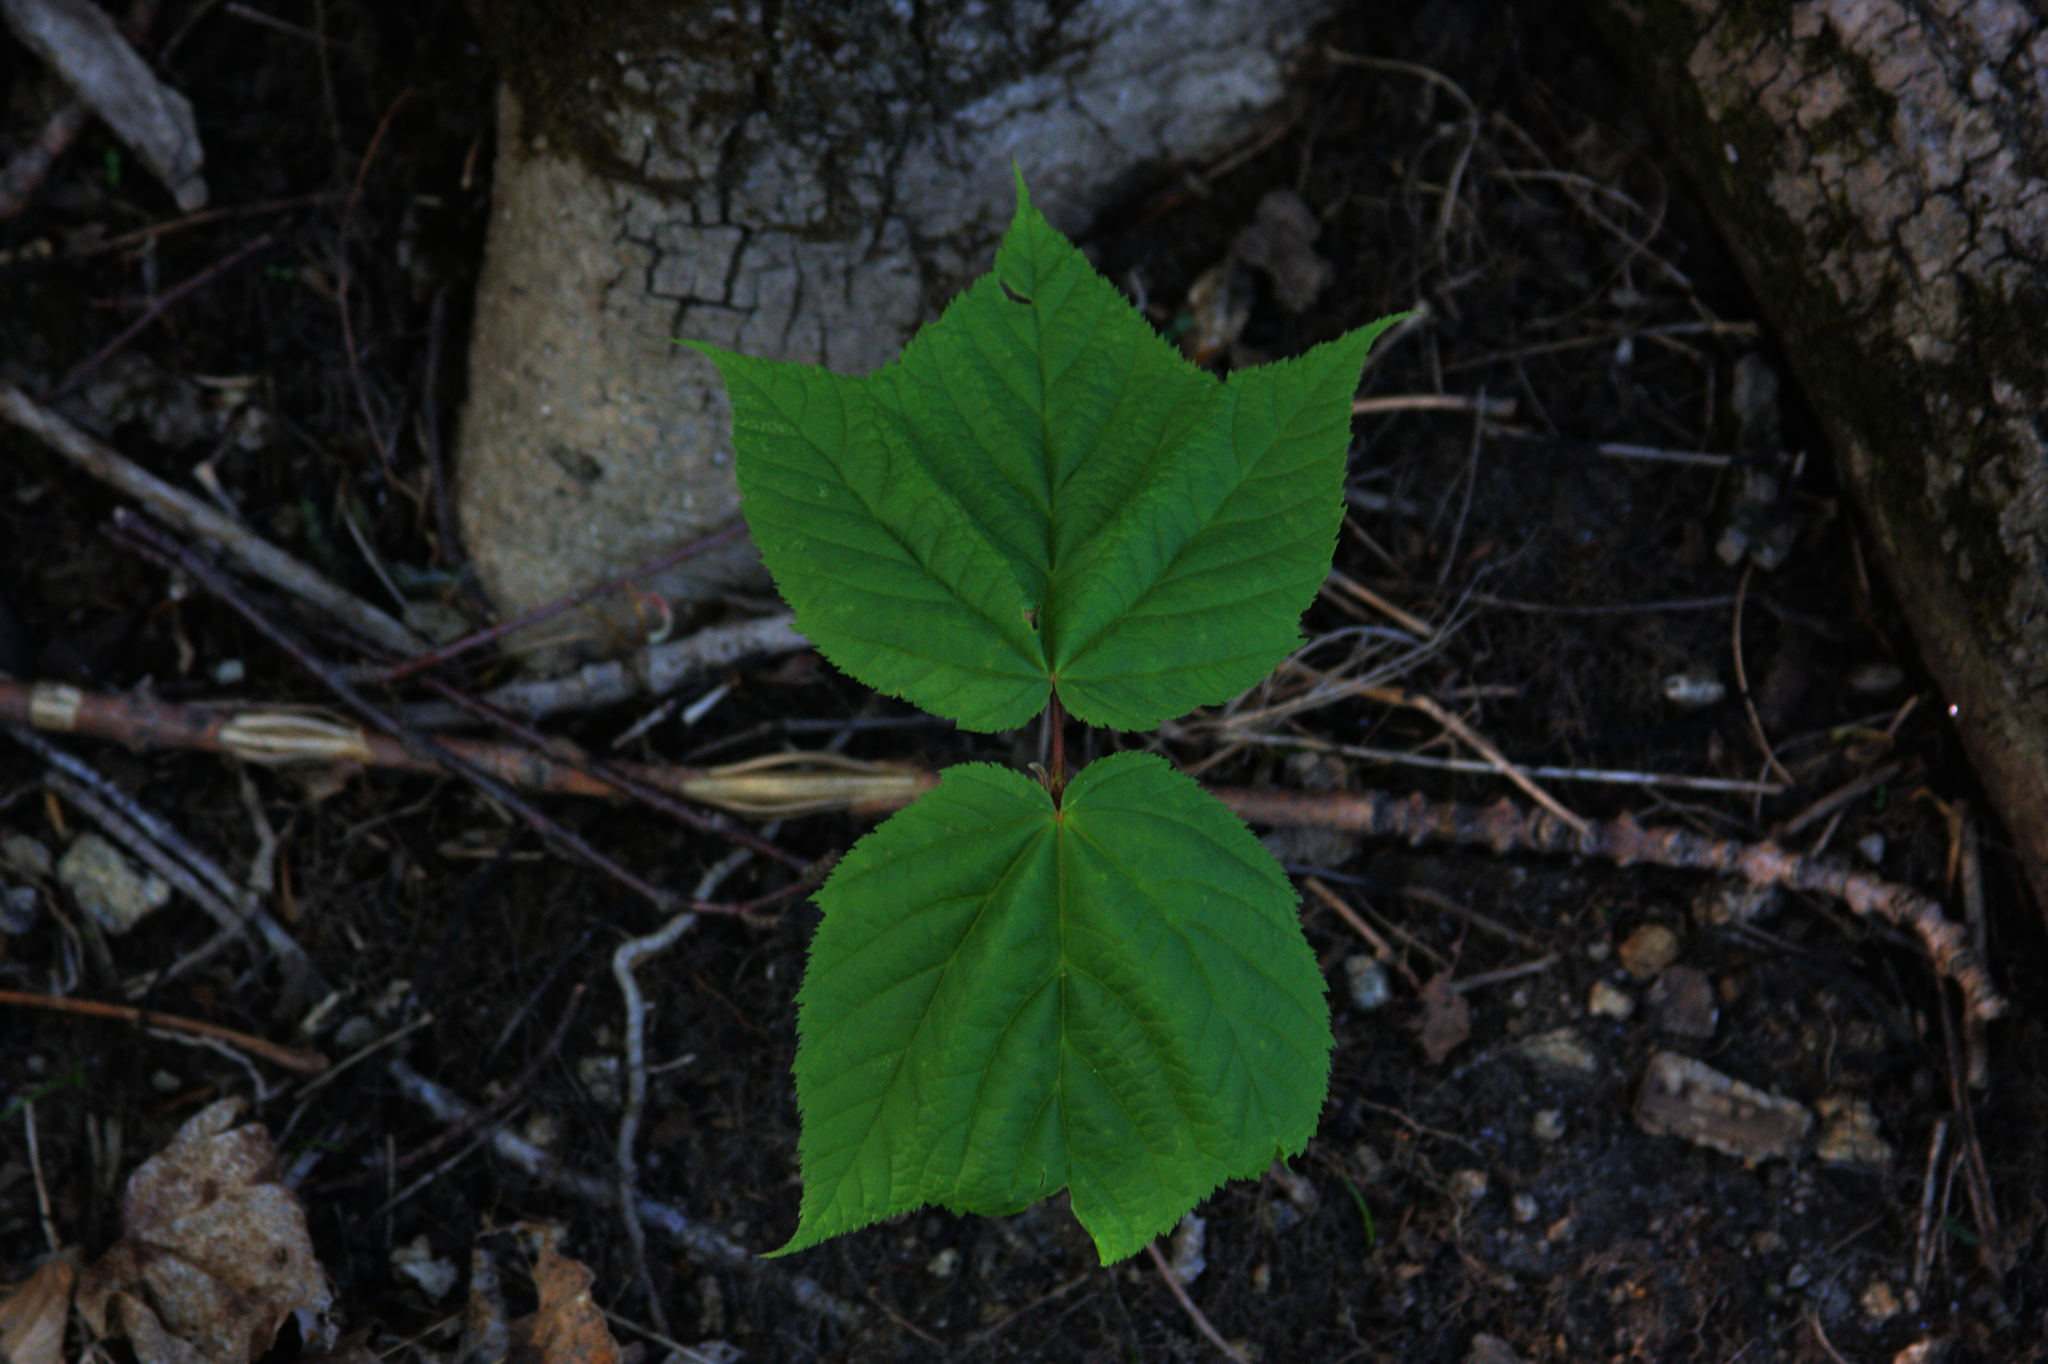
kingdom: Plantae
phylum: Tracheophyta
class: Magnoliopsida
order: Sapindales
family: Sapindaceae
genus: Acer
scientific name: Acer pensylvanicum
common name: Moosewood
